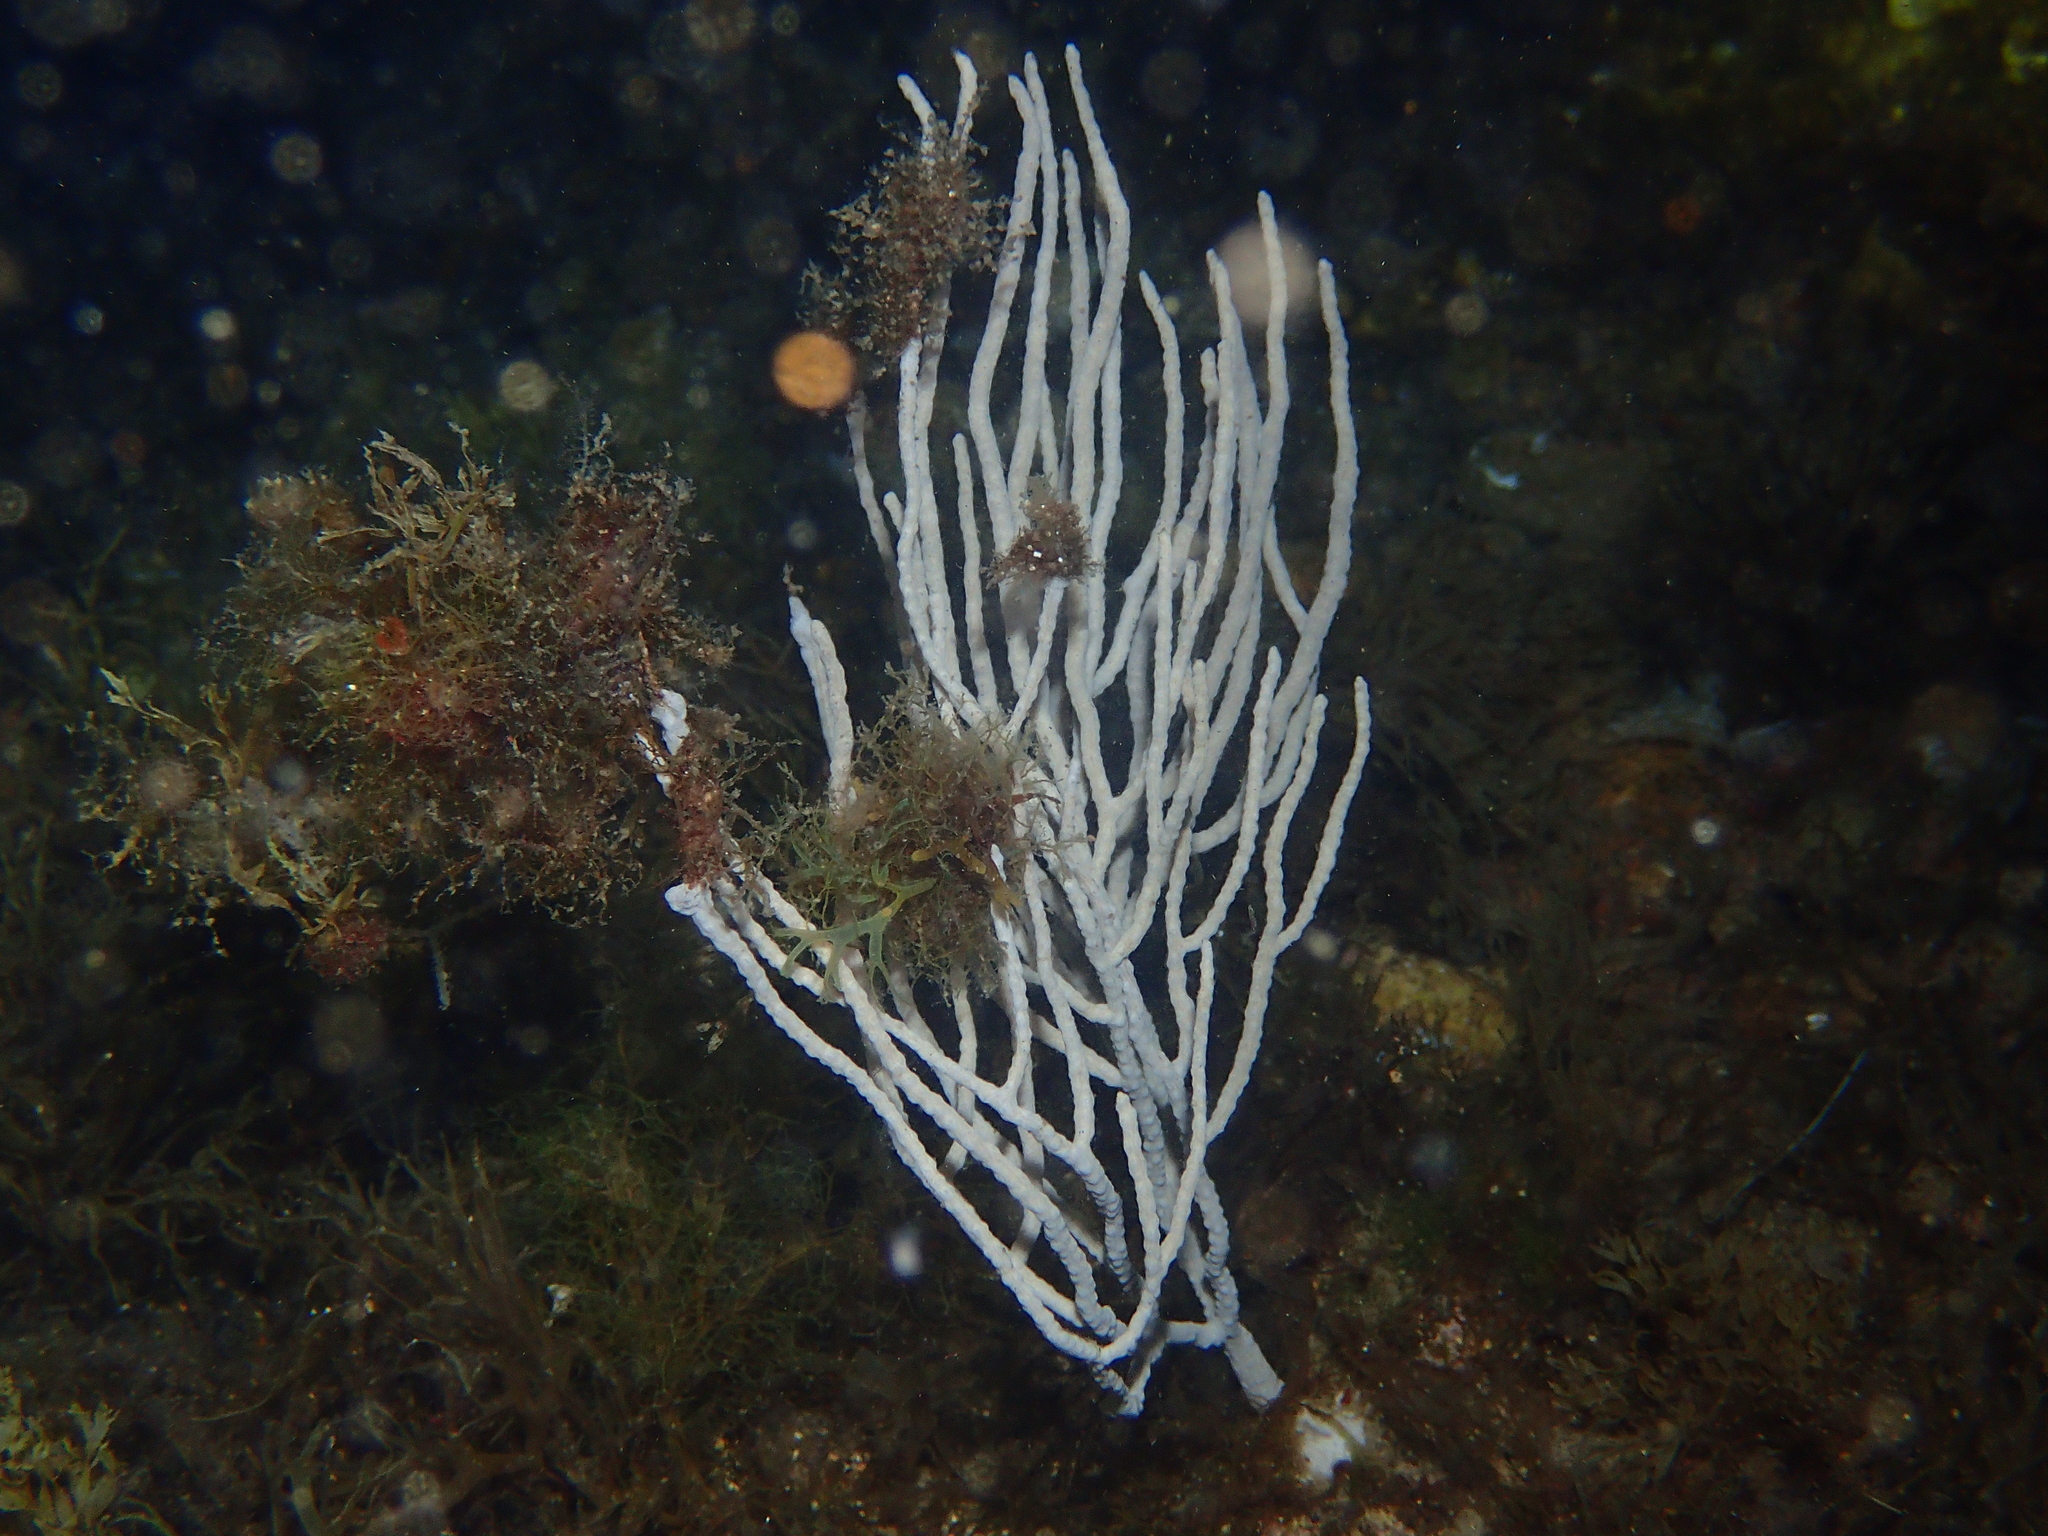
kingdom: Animalia
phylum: Cnidaria
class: Anthozoa
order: Malacalcyonacea
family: Eunicellidae
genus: Eunicella
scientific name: Eunicella singularis
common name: White horny coral
